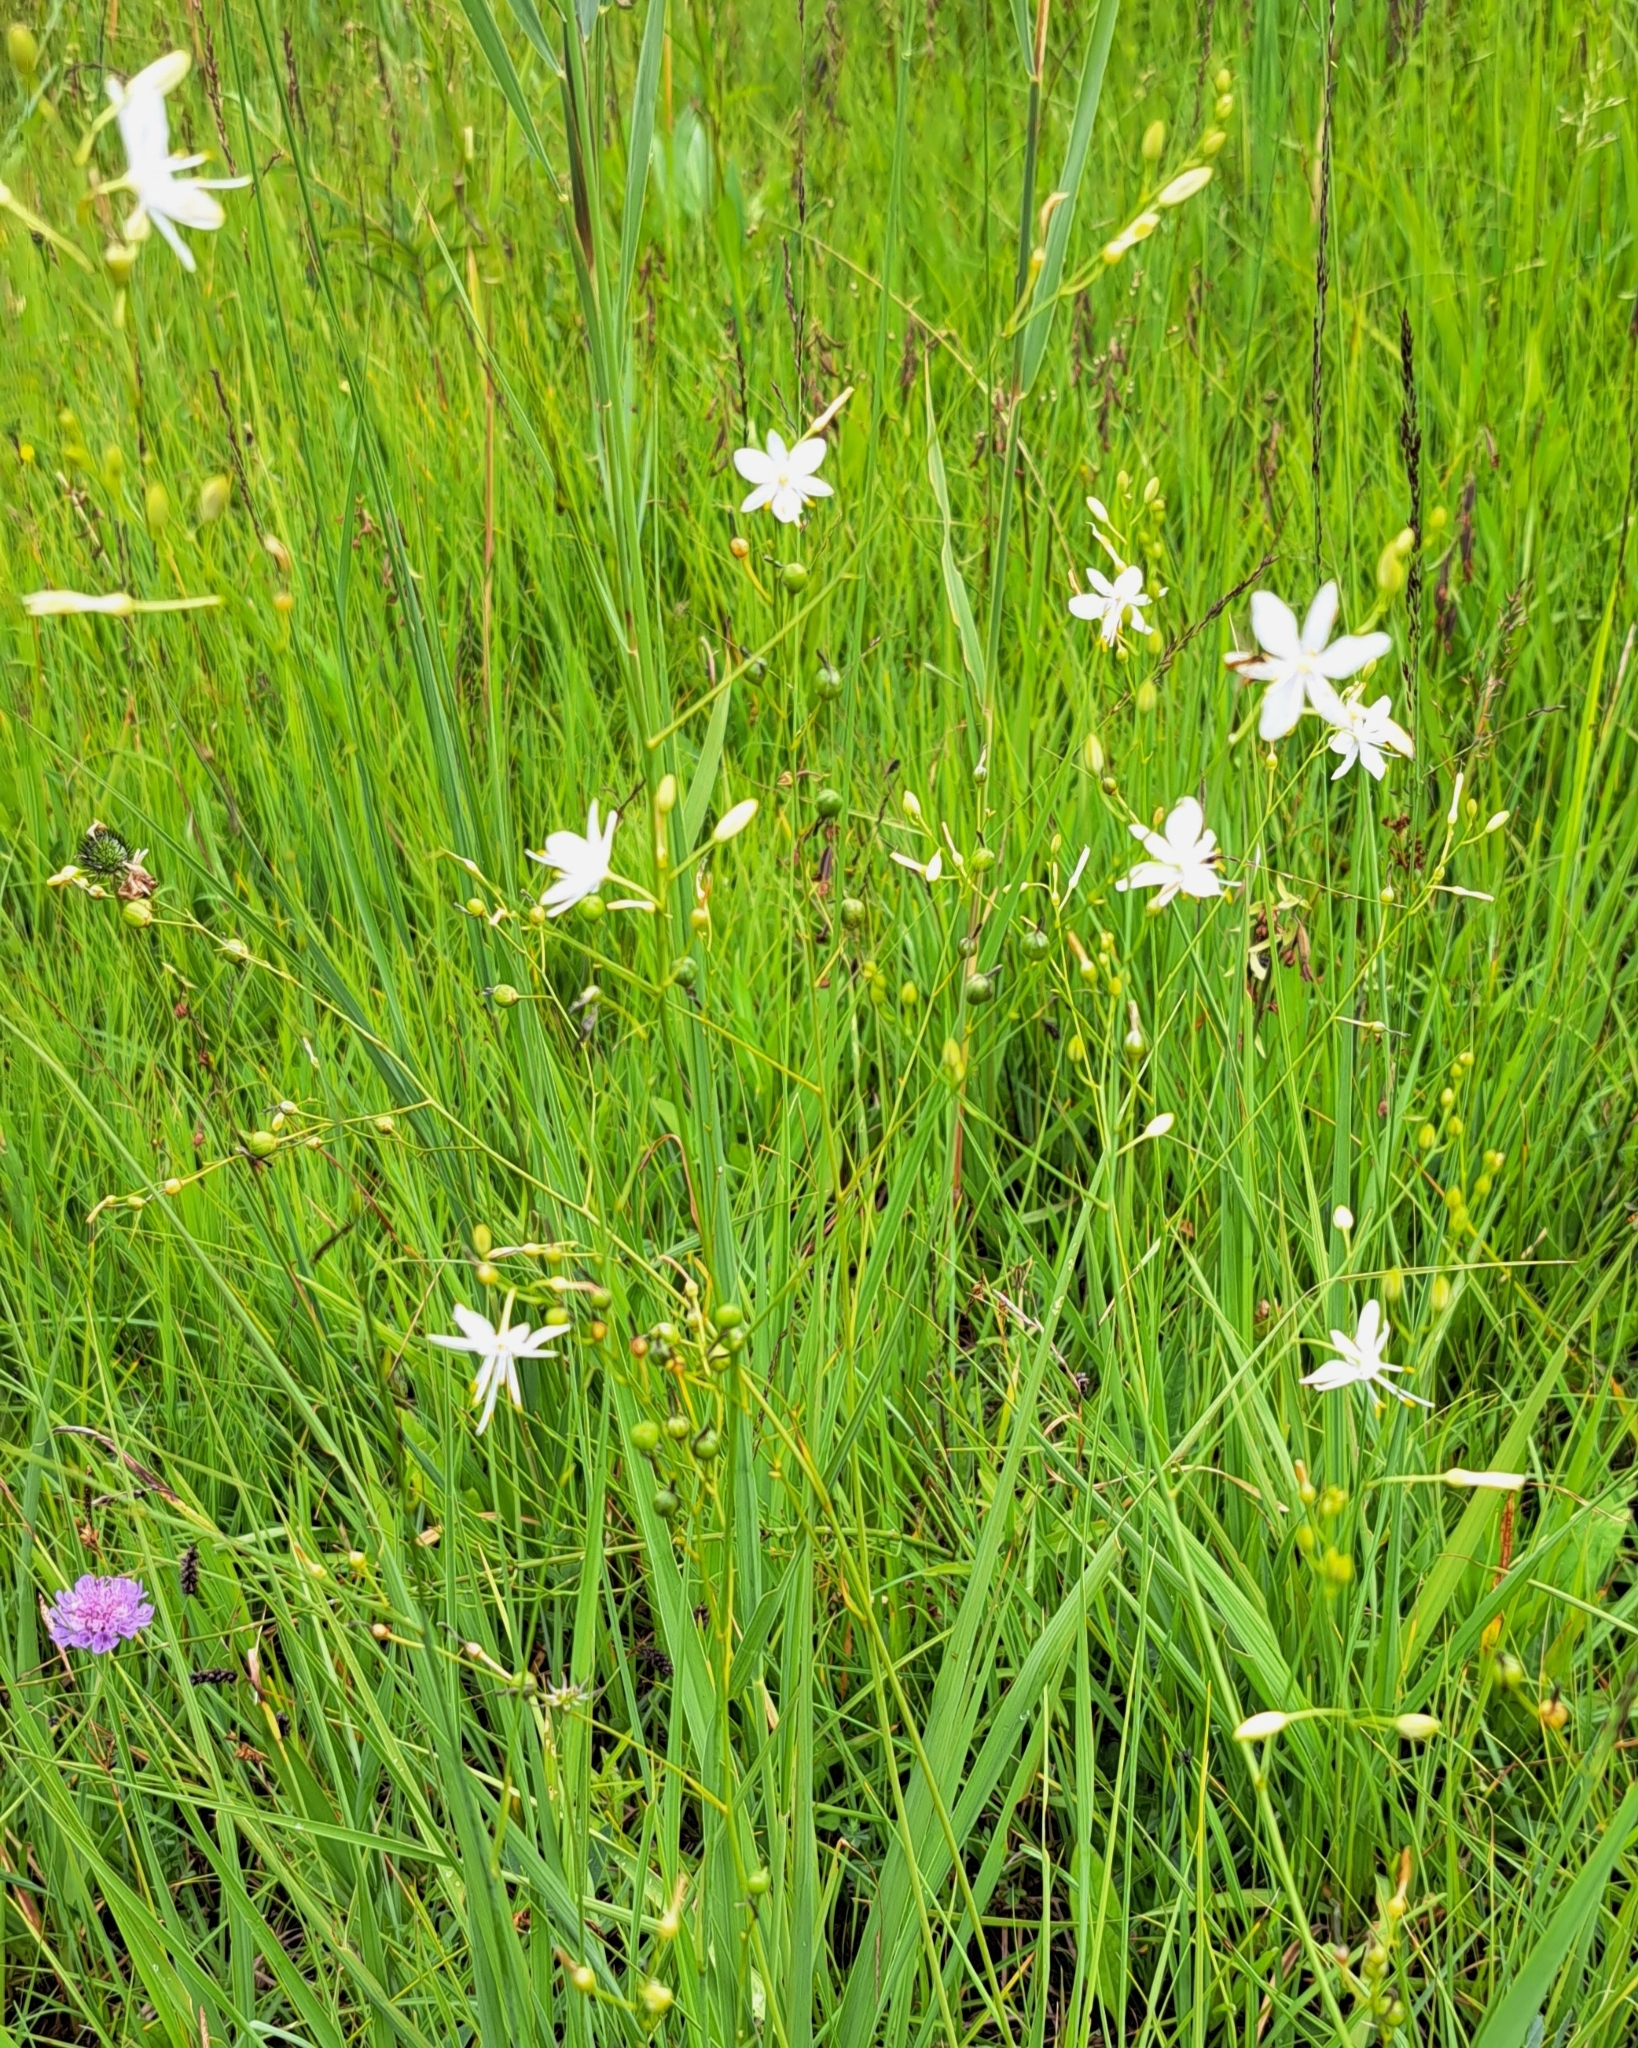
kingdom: Plantae
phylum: Tracheophyta
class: Liliopsida
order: Asparagales
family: Asparagaceae
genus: Anthericum
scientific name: Anthericum ramosum
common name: Branched st. bernard's-lily
